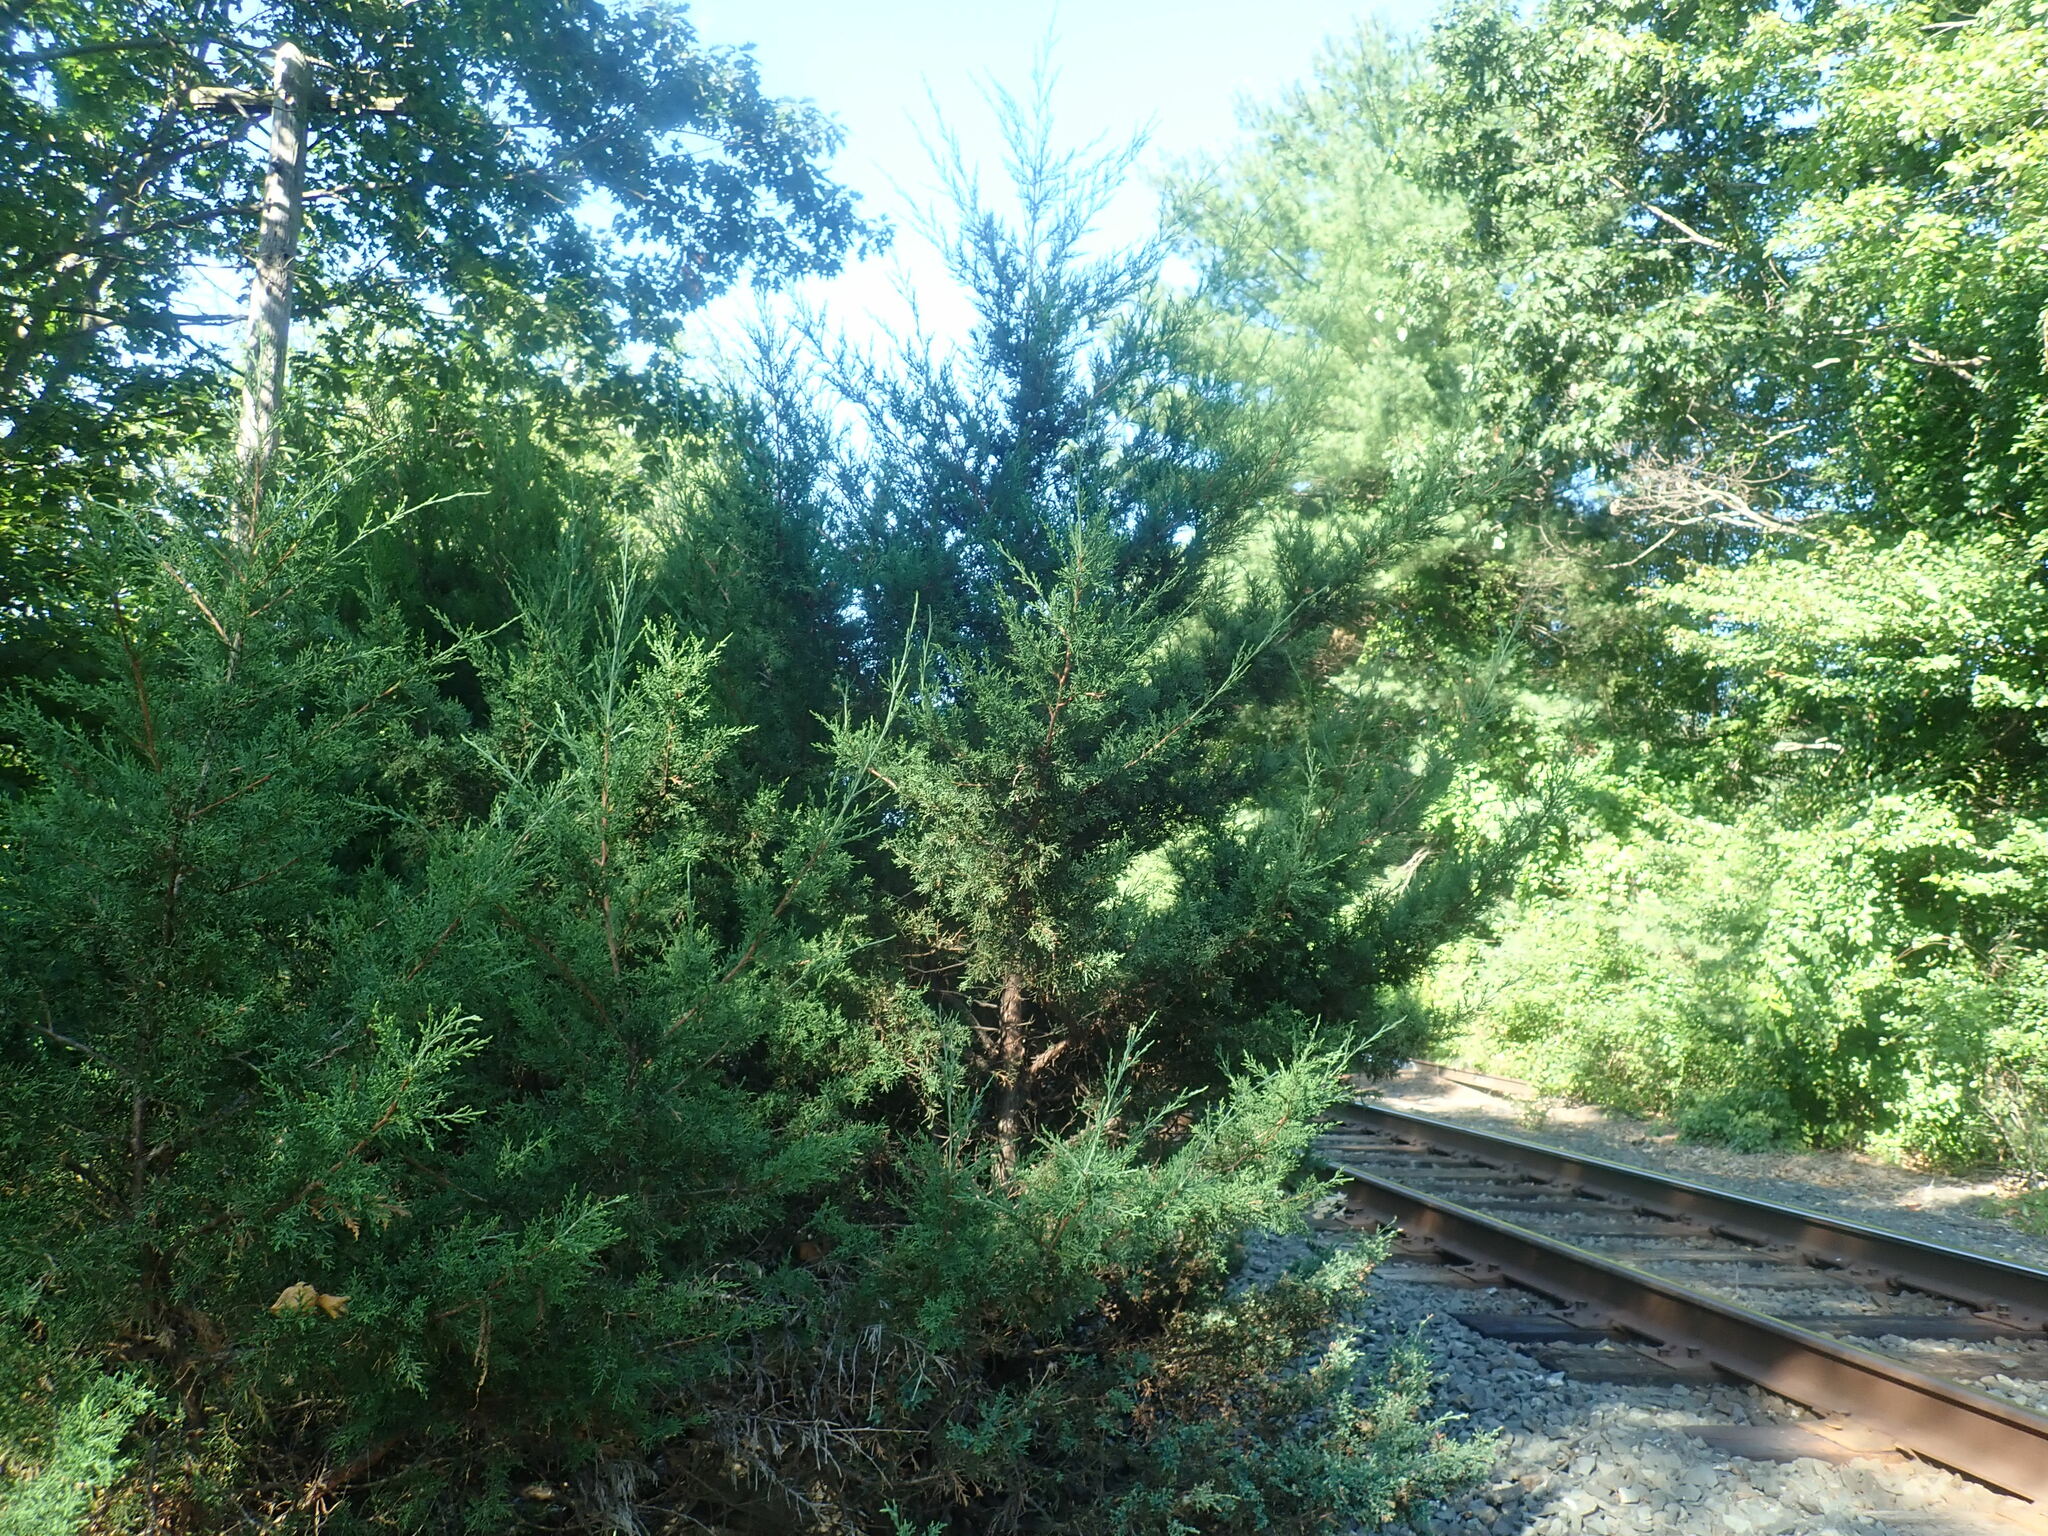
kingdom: Plantae
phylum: Tracheophyta
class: Pinopsida
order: Pinales
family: Cupressaceae
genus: Juniperus
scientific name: Juniperus virginiana
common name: Red juniper
